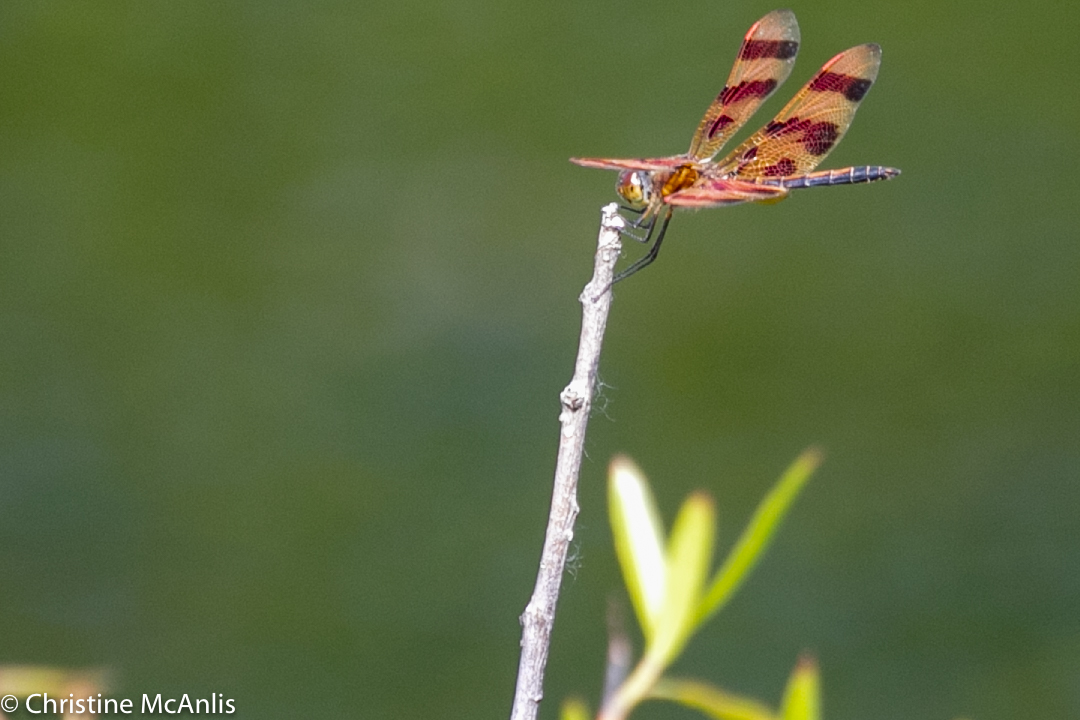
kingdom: Animalia
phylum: Arthropoda
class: Insecta
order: Odonata
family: Libellulidae
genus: Celithemis
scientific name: Celithemis eponina
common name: Halloween pennant
